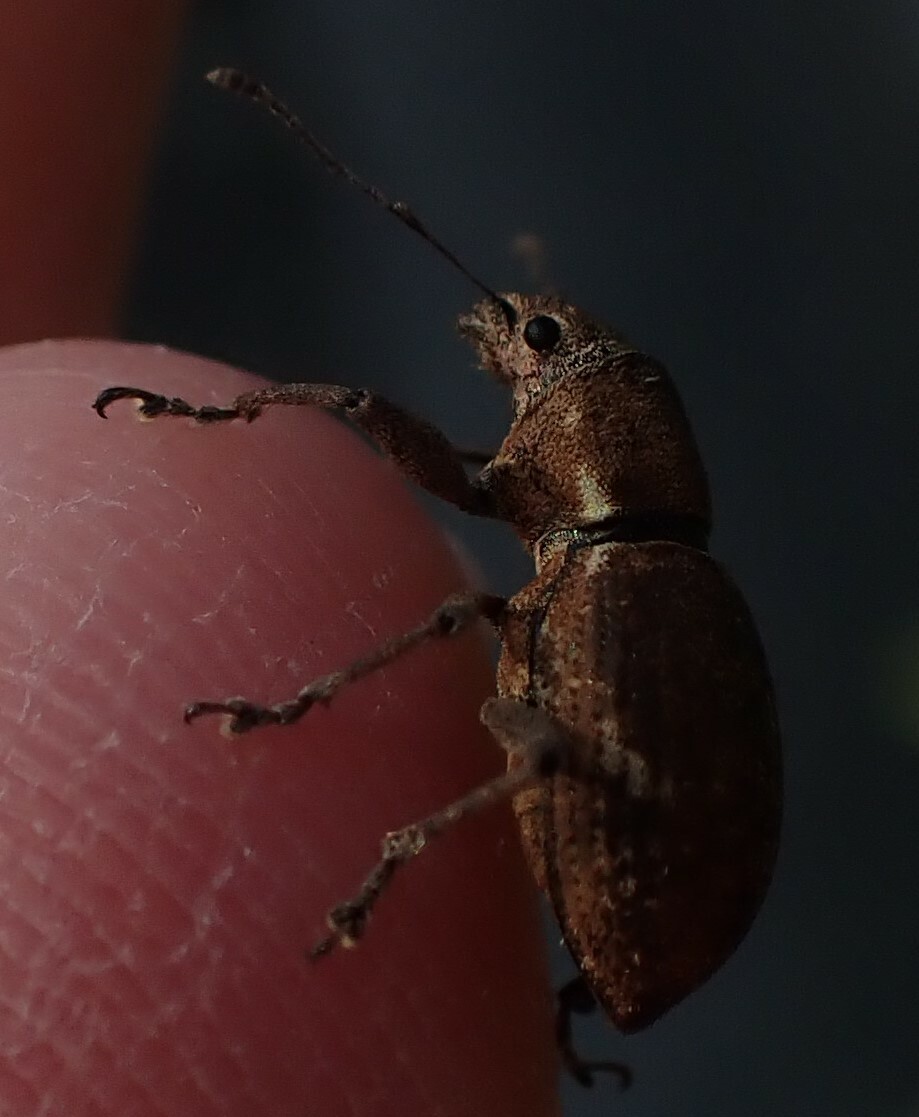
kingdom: Animalia
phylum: Arthropoda
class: Insecta
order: Coleoptera
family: Curculionidae
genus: Naupactus
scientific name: Naupactus cervinus
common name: Fuller rose beetle
